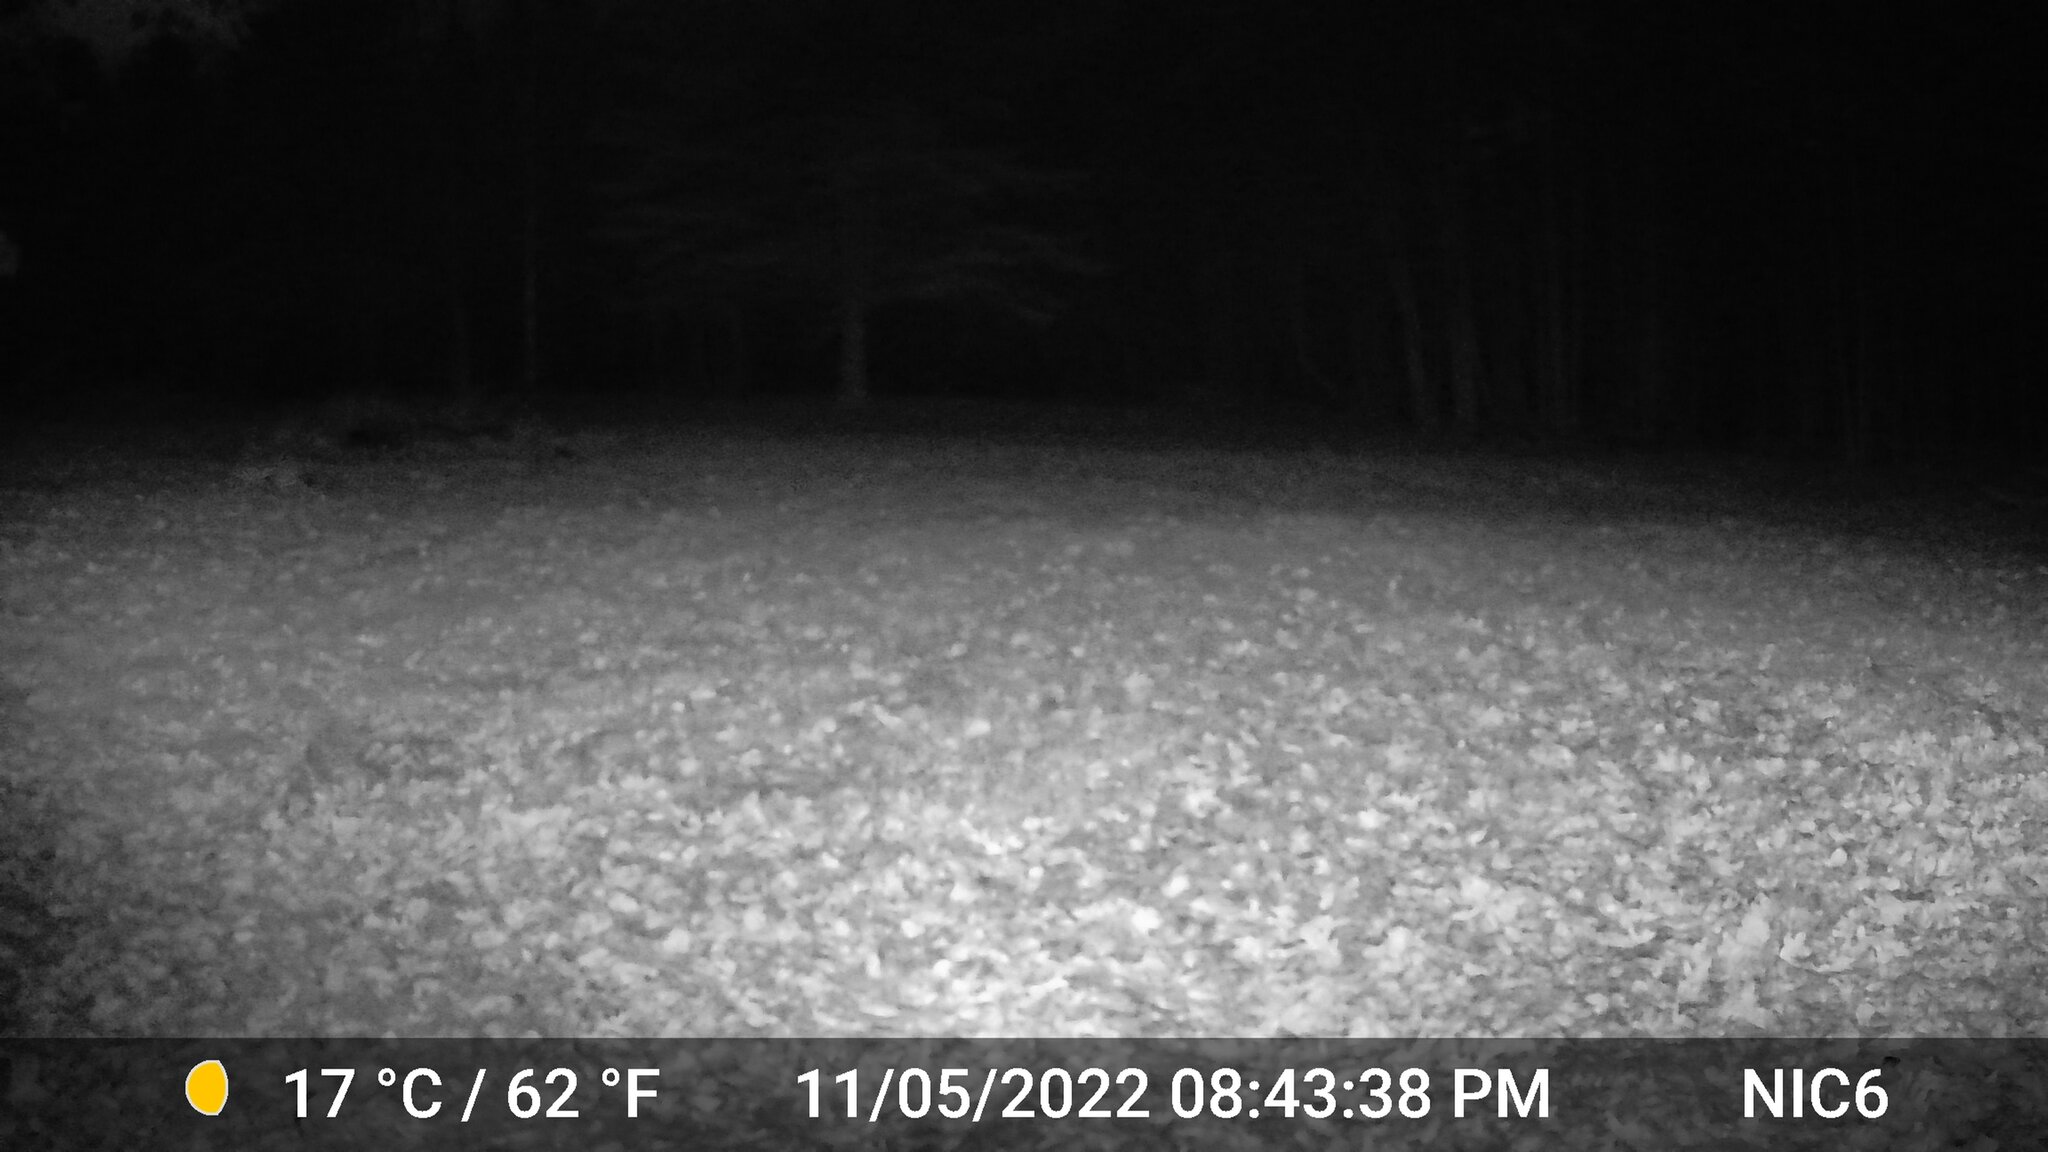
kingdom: Animalia
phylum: Chordata
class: Mammalia
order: Carnivora
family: Canidae
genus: Vulpes
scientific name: Vulpes vulpes
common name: Red fox
